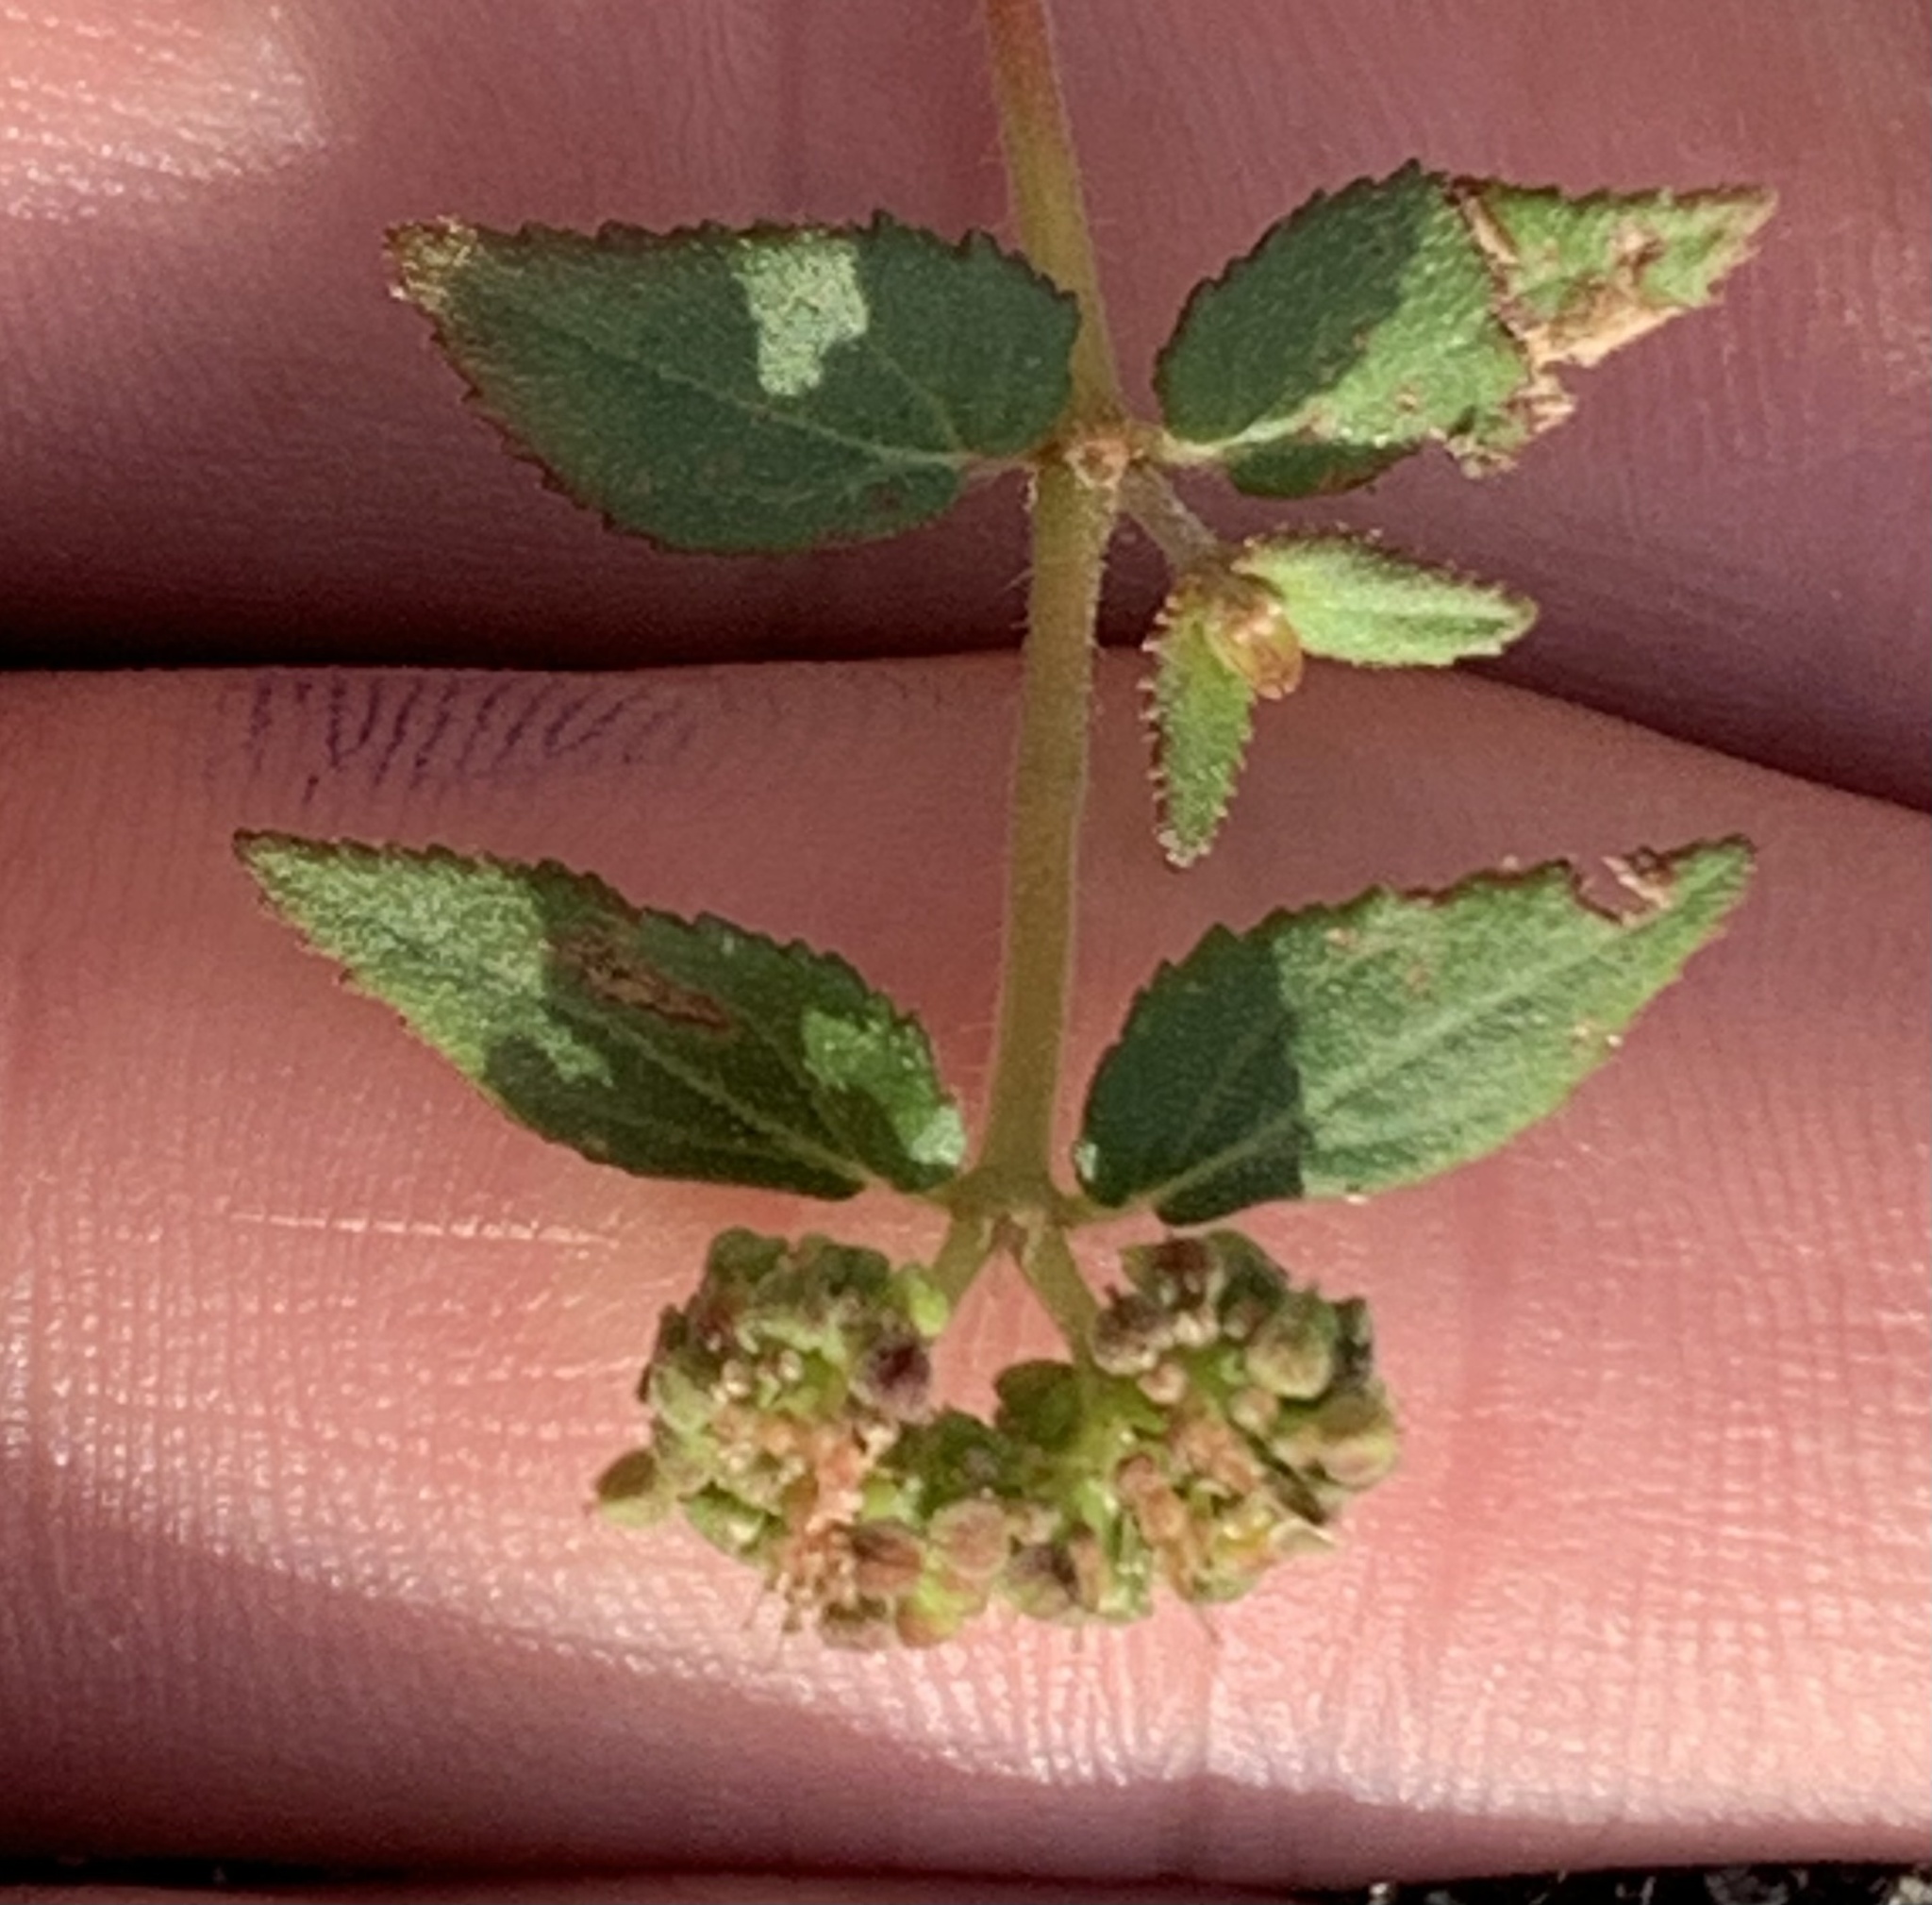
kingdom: Plantae
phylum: Tracheophyta
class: Magnoliopsida
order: Malpighiales
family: Euphorbiaceae
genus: Euphorbia
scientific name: Euphorbia ophthalmica
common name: Florida hammock sandmat
